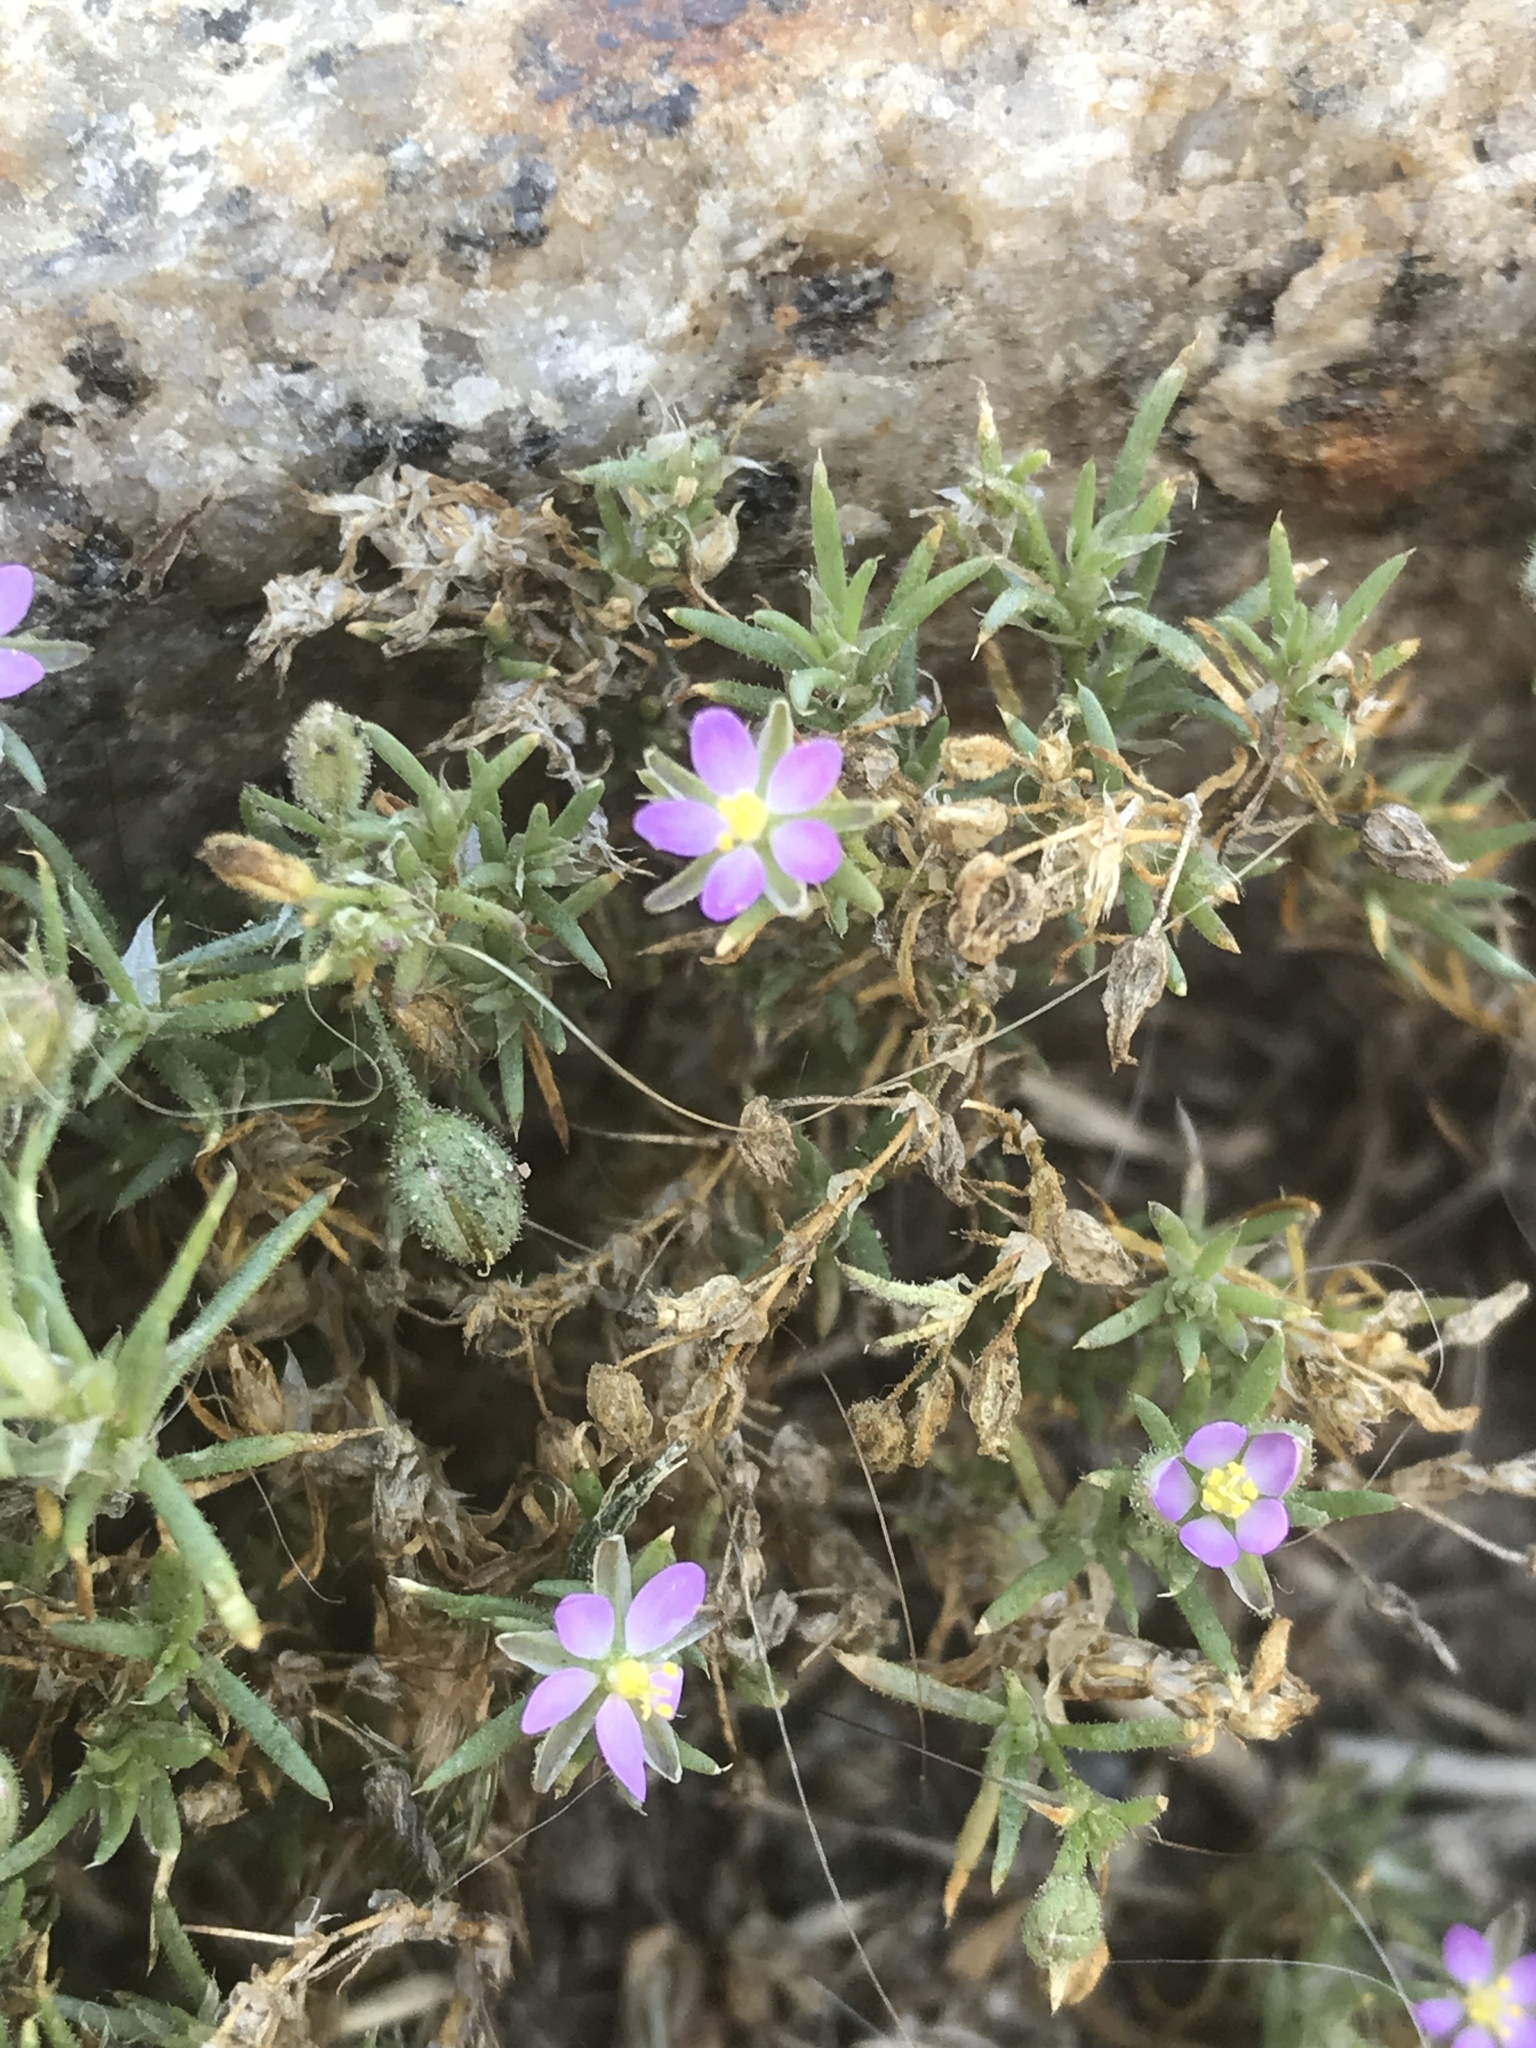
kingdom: Plantae
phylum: Tracheophyta
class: Magnoliopsida
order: Caryophyllales
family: Caryophyllaceae
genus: Spergularia
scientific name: Spergularia rubra
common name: Red sand-spurrey
